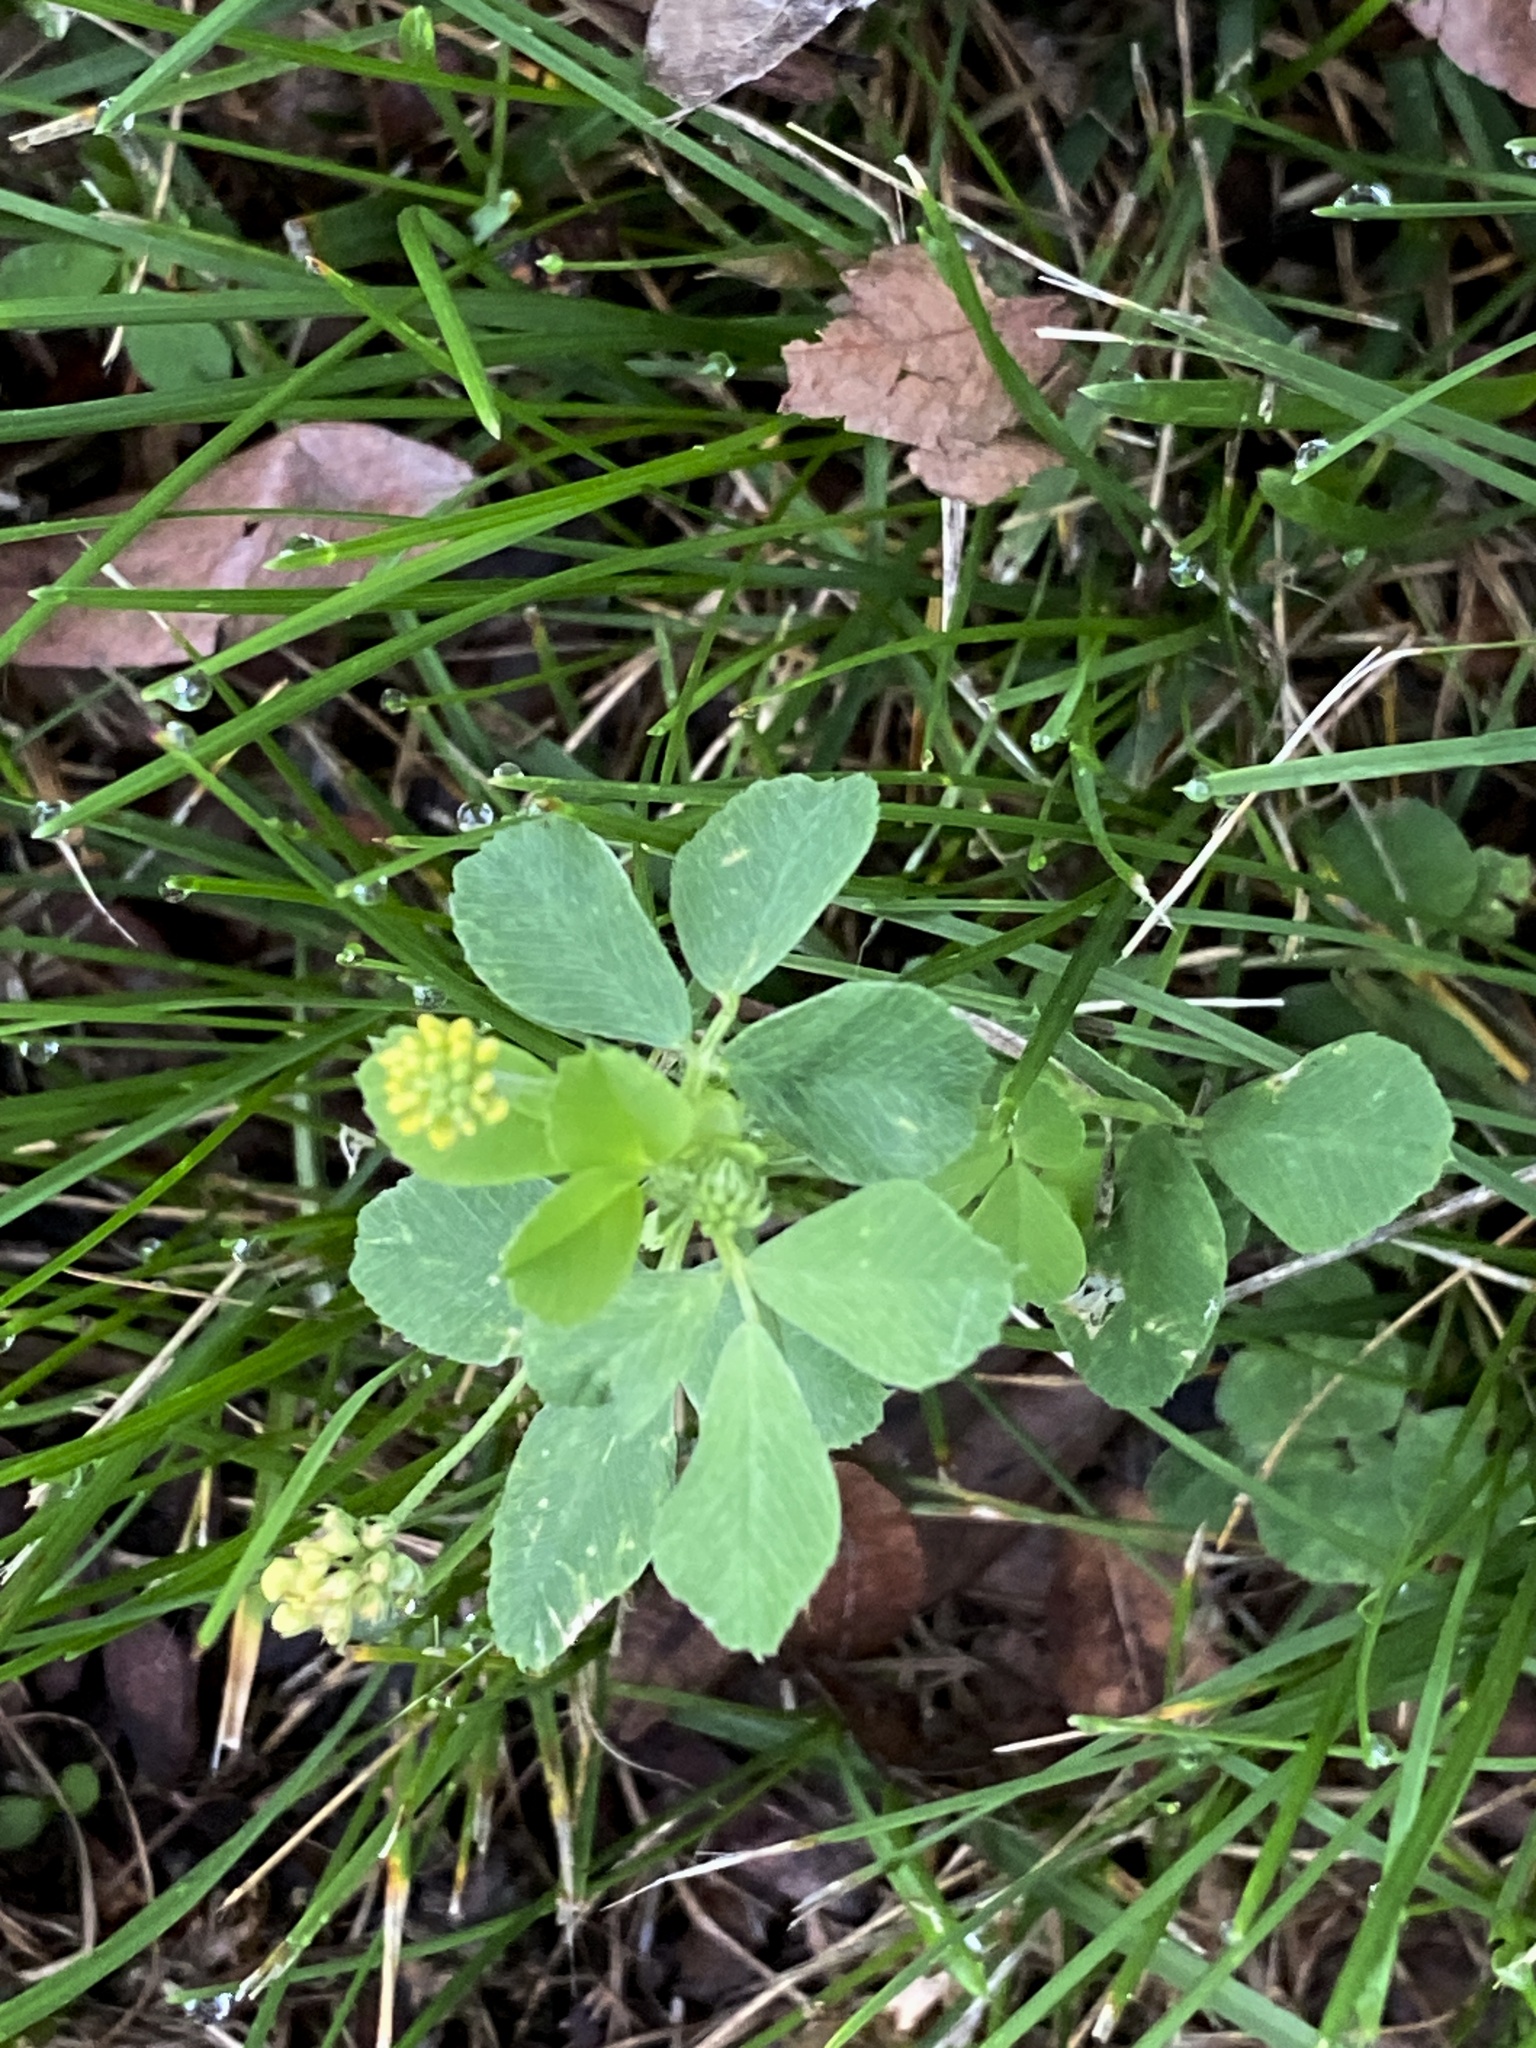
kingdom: Plantae
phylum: Tracheophyta
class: Magnoliopsida
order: Fabales
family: Fabaceae
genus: Medicago
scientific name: Medicago lupulina
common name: Black medick
